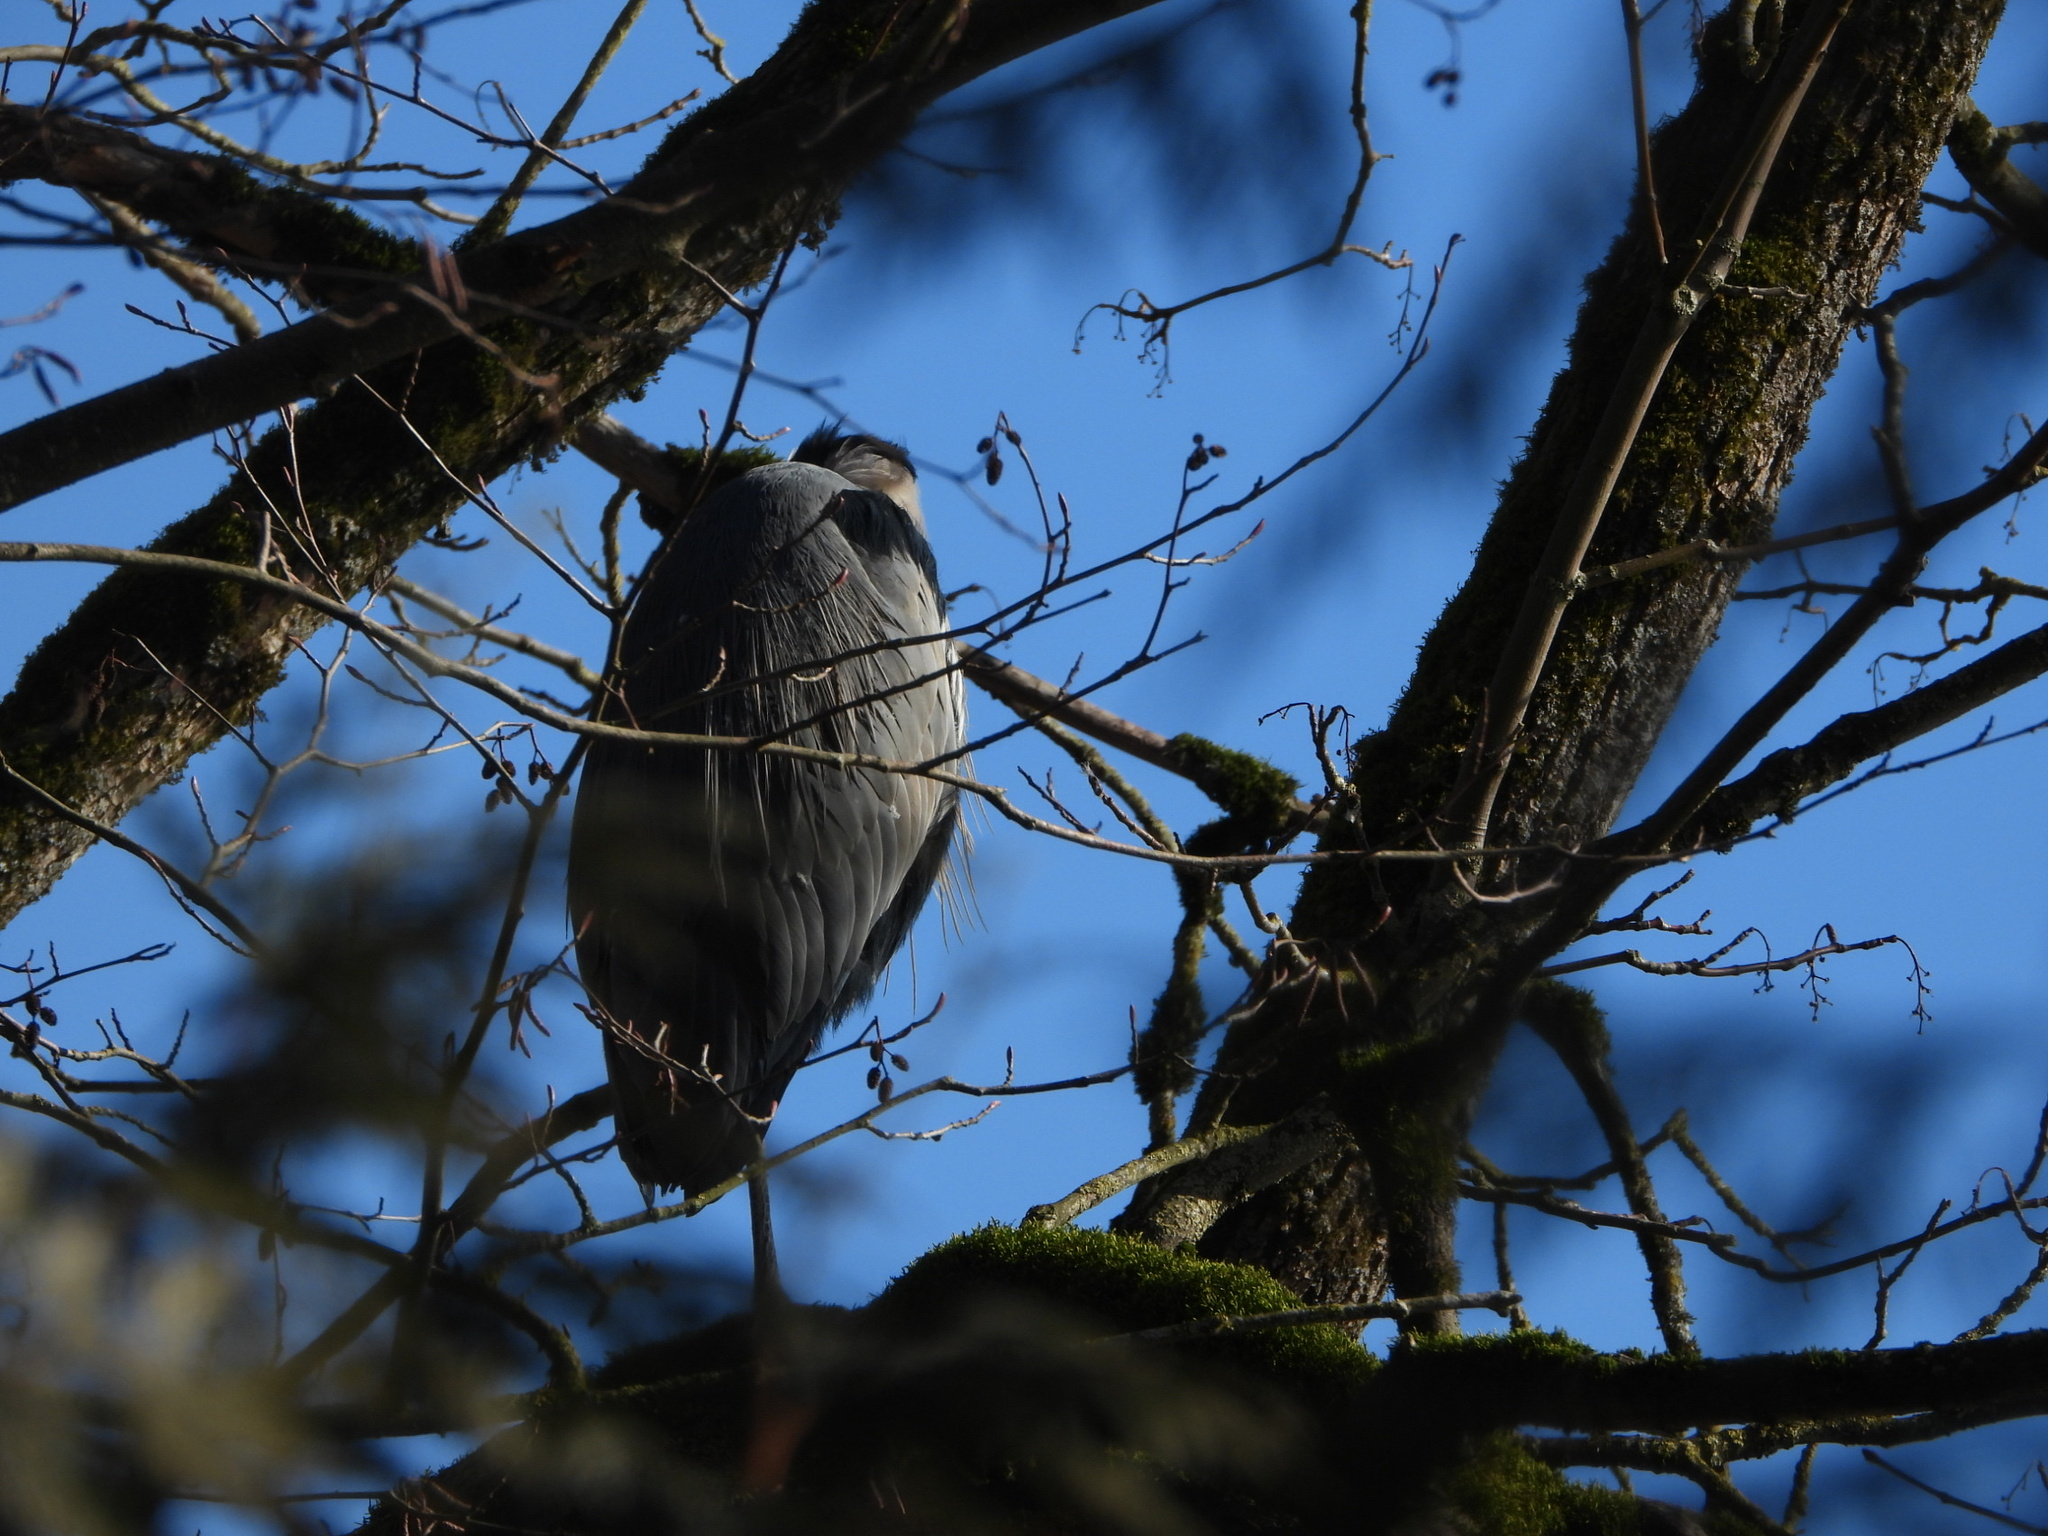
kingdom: Animalia
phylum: Chordata
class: Aves
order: Pelecaniformes
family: Ardeidae
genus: Ardea
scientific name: Ardea herodias
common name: Great blue heron
